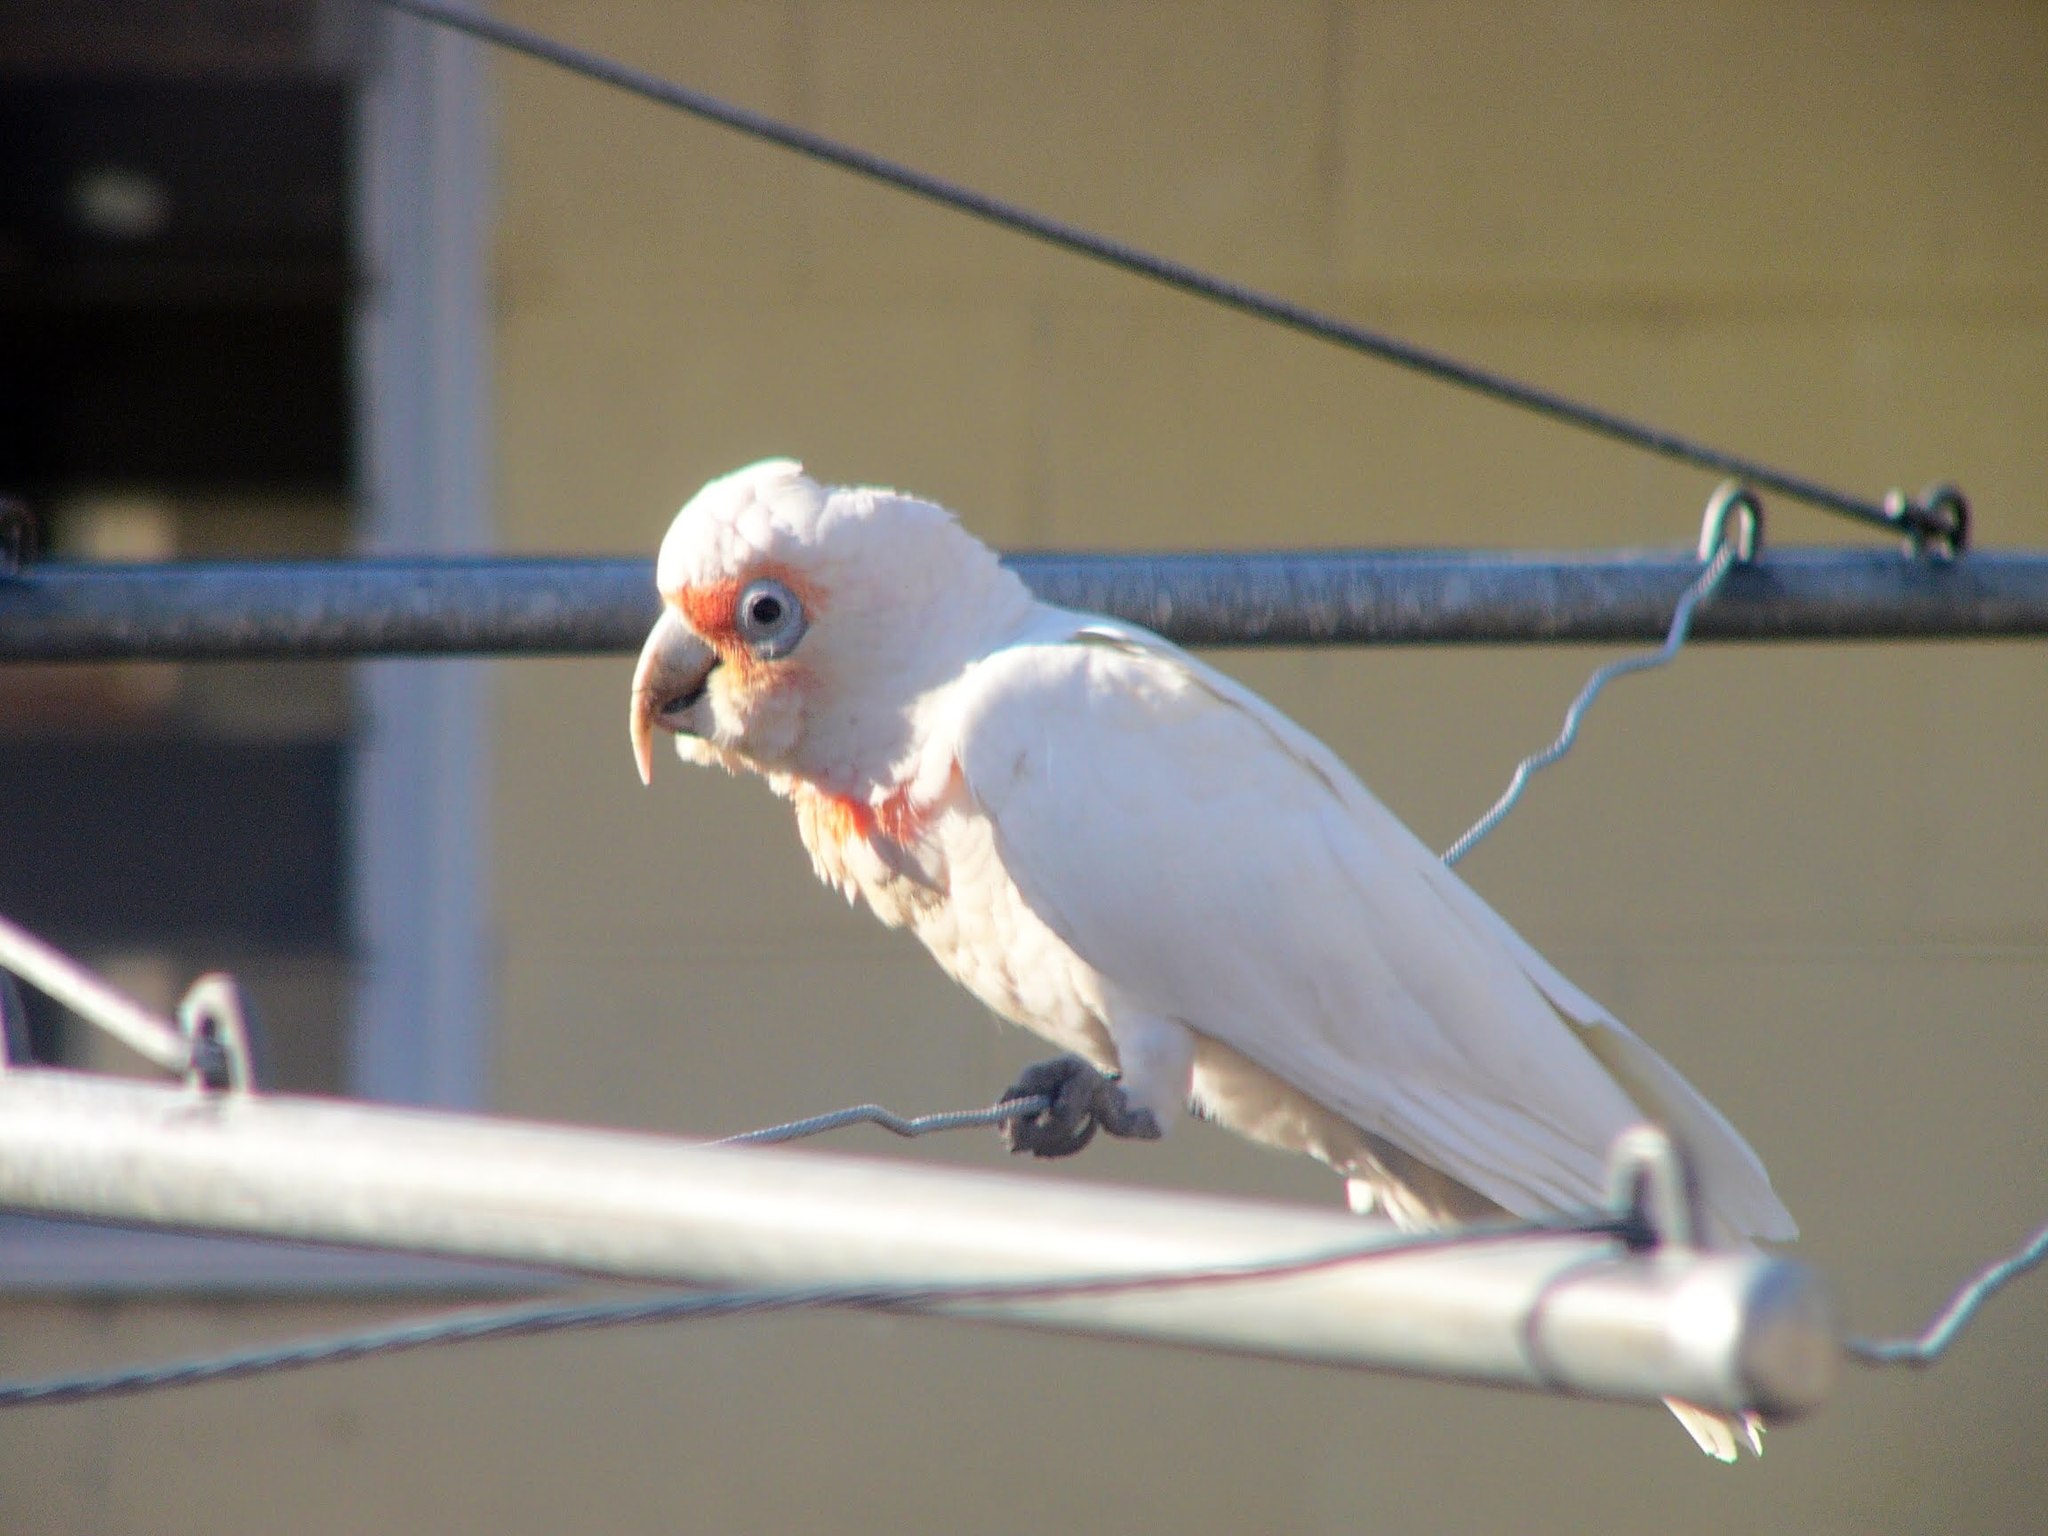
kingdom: Animalia
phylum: Chordata
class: Aves
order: Psittaciformes
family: Psittacidae
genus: Cacatua
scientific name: Cacatua tenuirostris
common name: Long-billed corella
